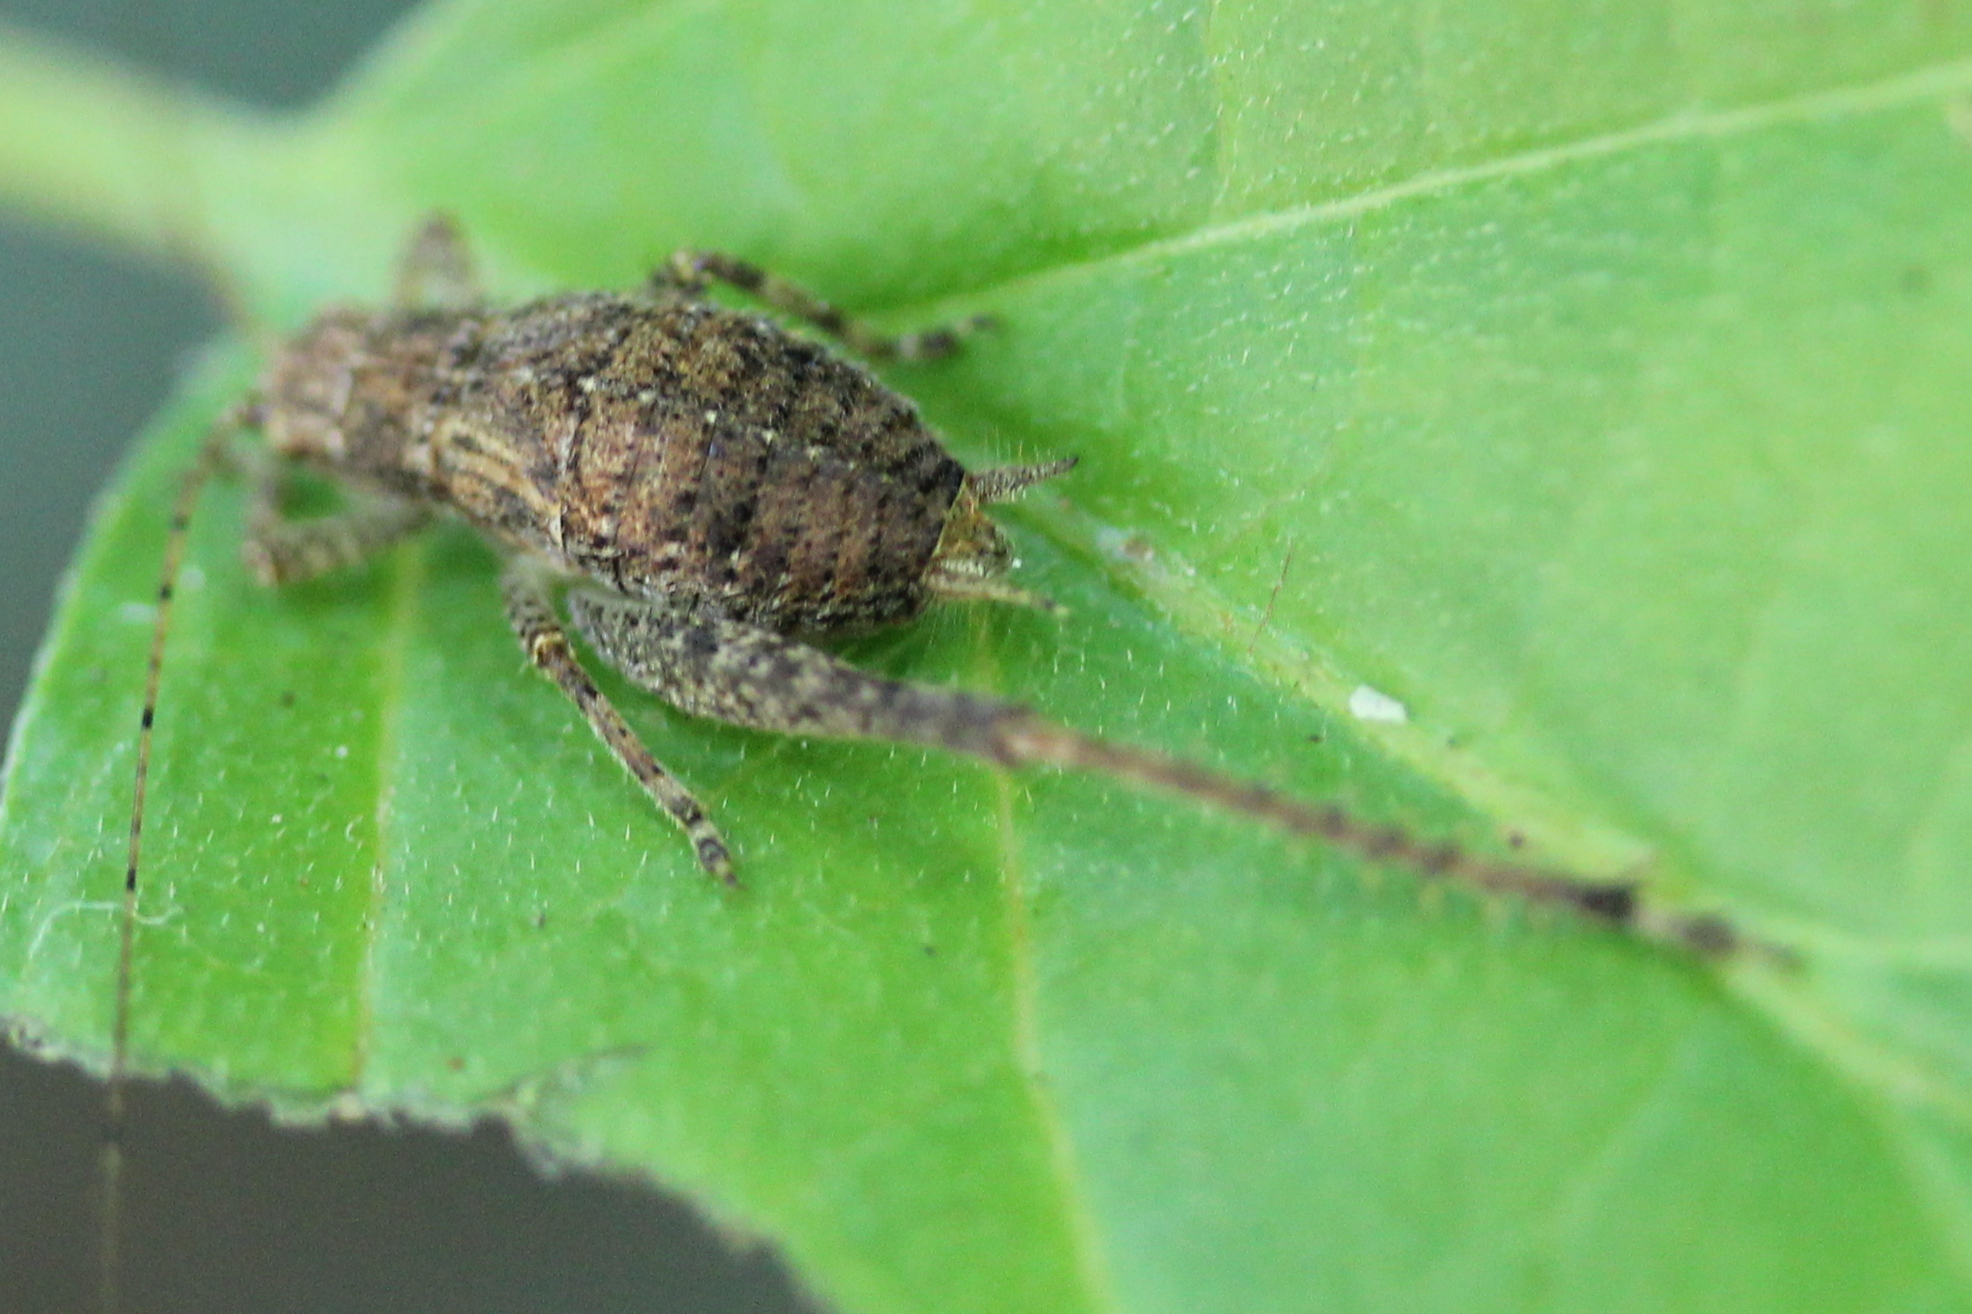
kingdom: Animalia
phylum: Arthropoda
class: Insecta
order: Orthoptera
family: Gryllidae
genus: Hapithus
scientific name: Hapithus agitator
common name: Restless bush cricket
